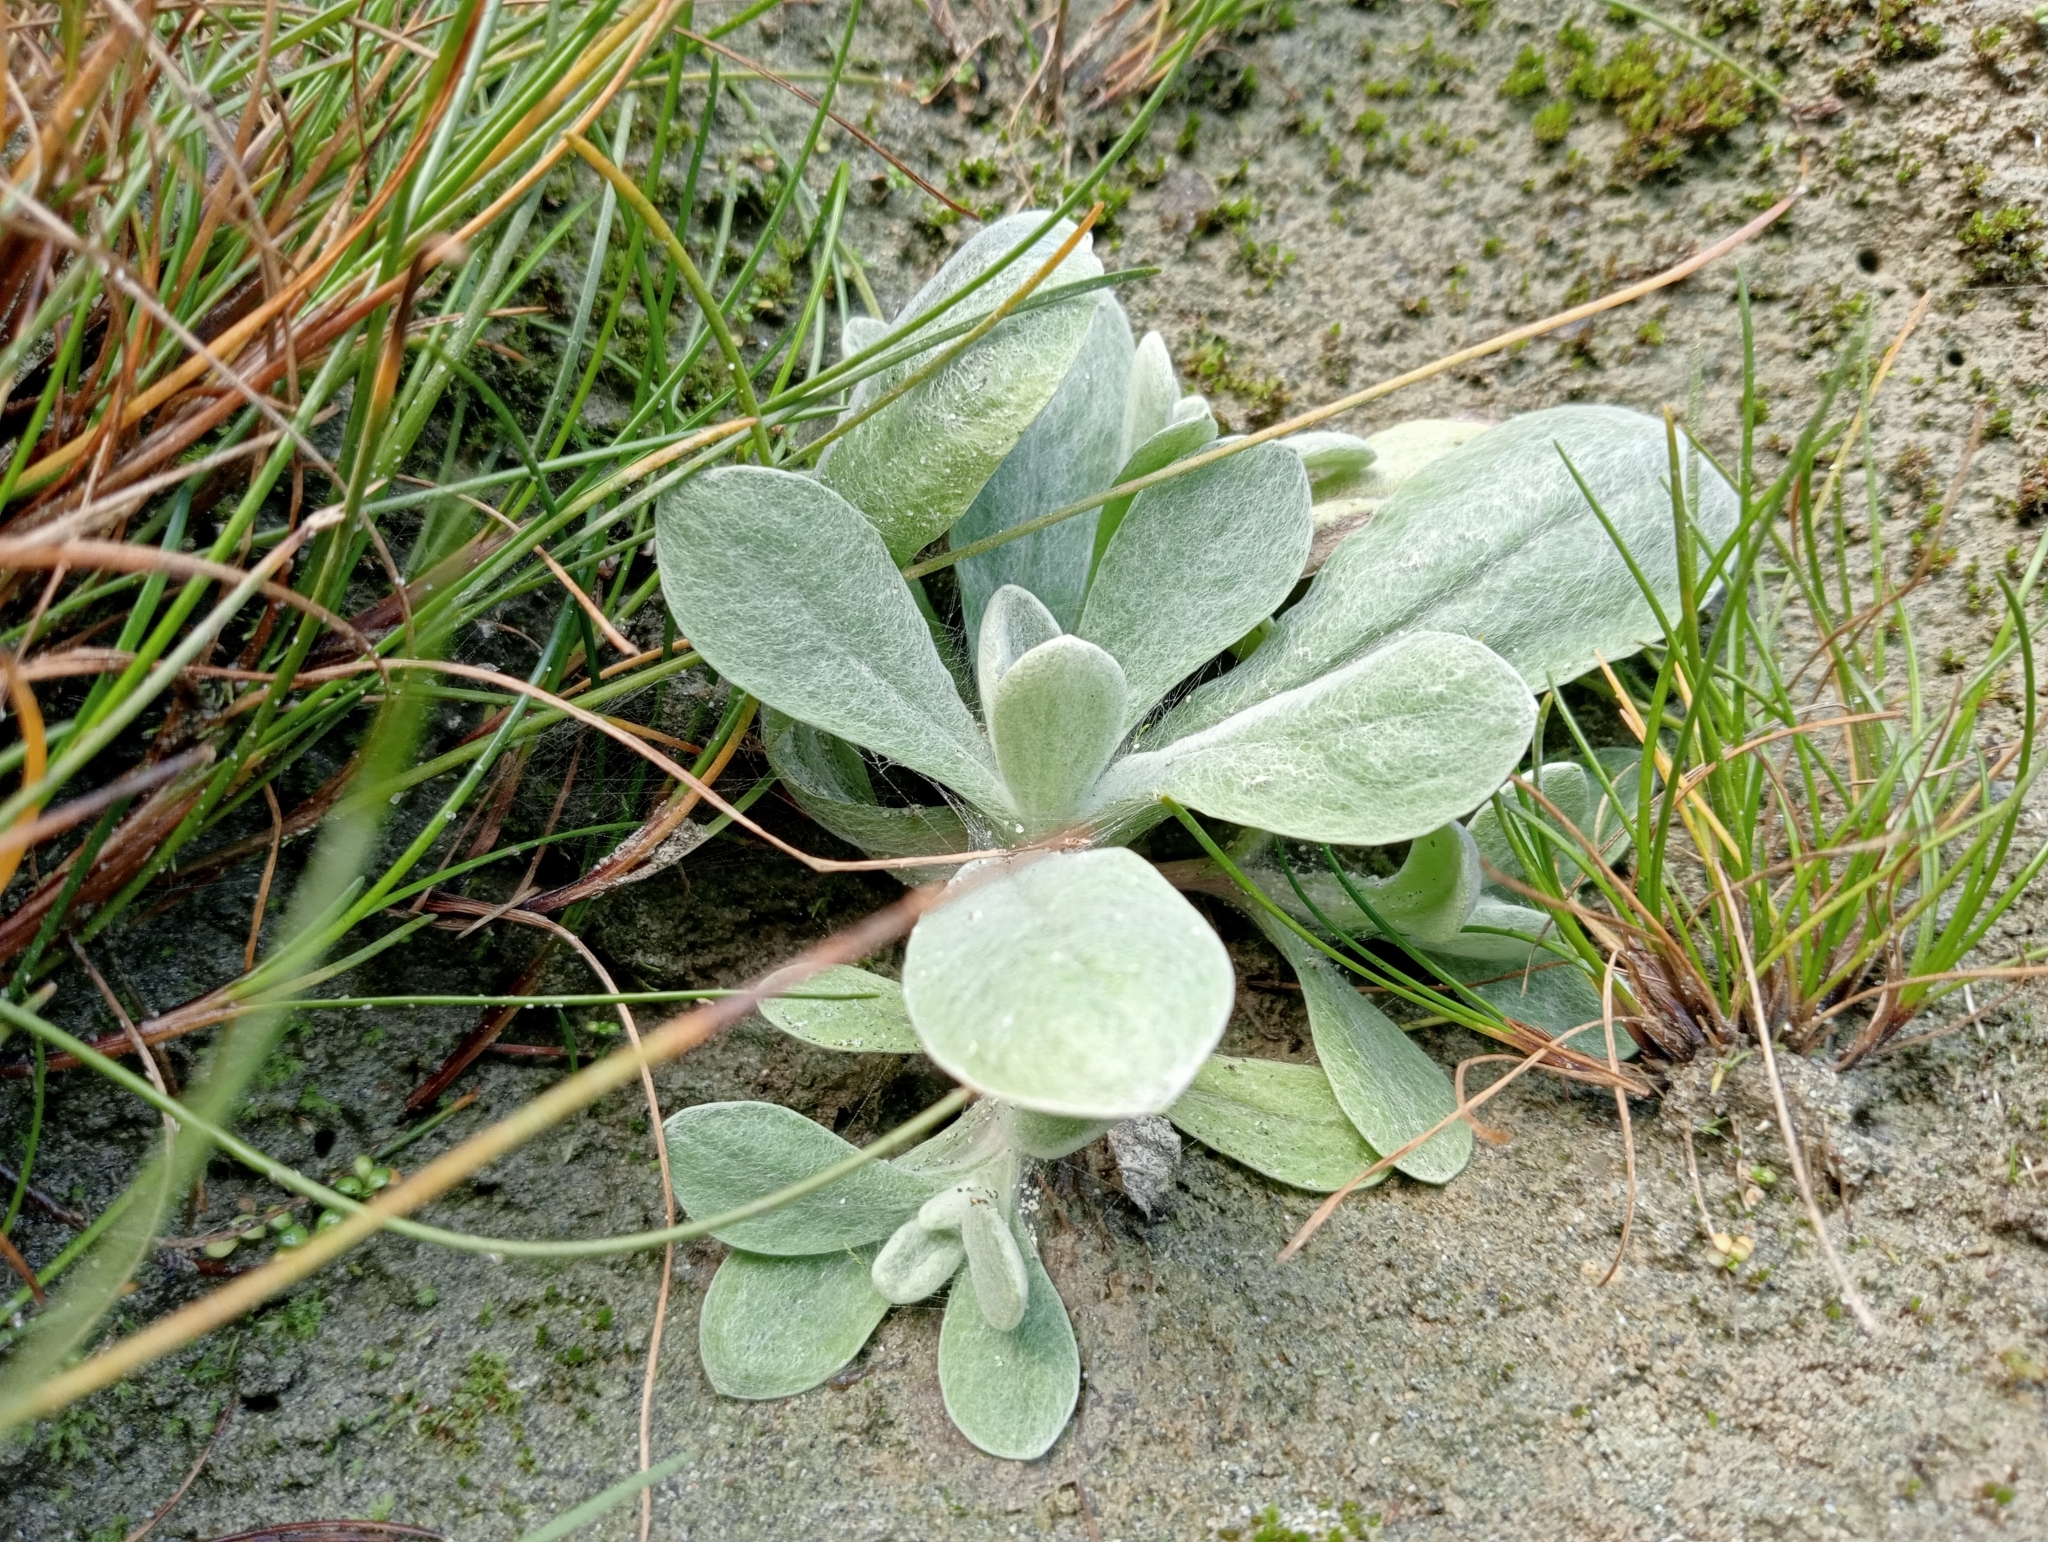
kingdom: Plantae
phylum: Tracheophyta
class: Magnoliopsida
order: Asterales
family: Asteraceae
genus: Helichrysum
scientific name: Helichrysum luteoalbum
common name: Daisy
